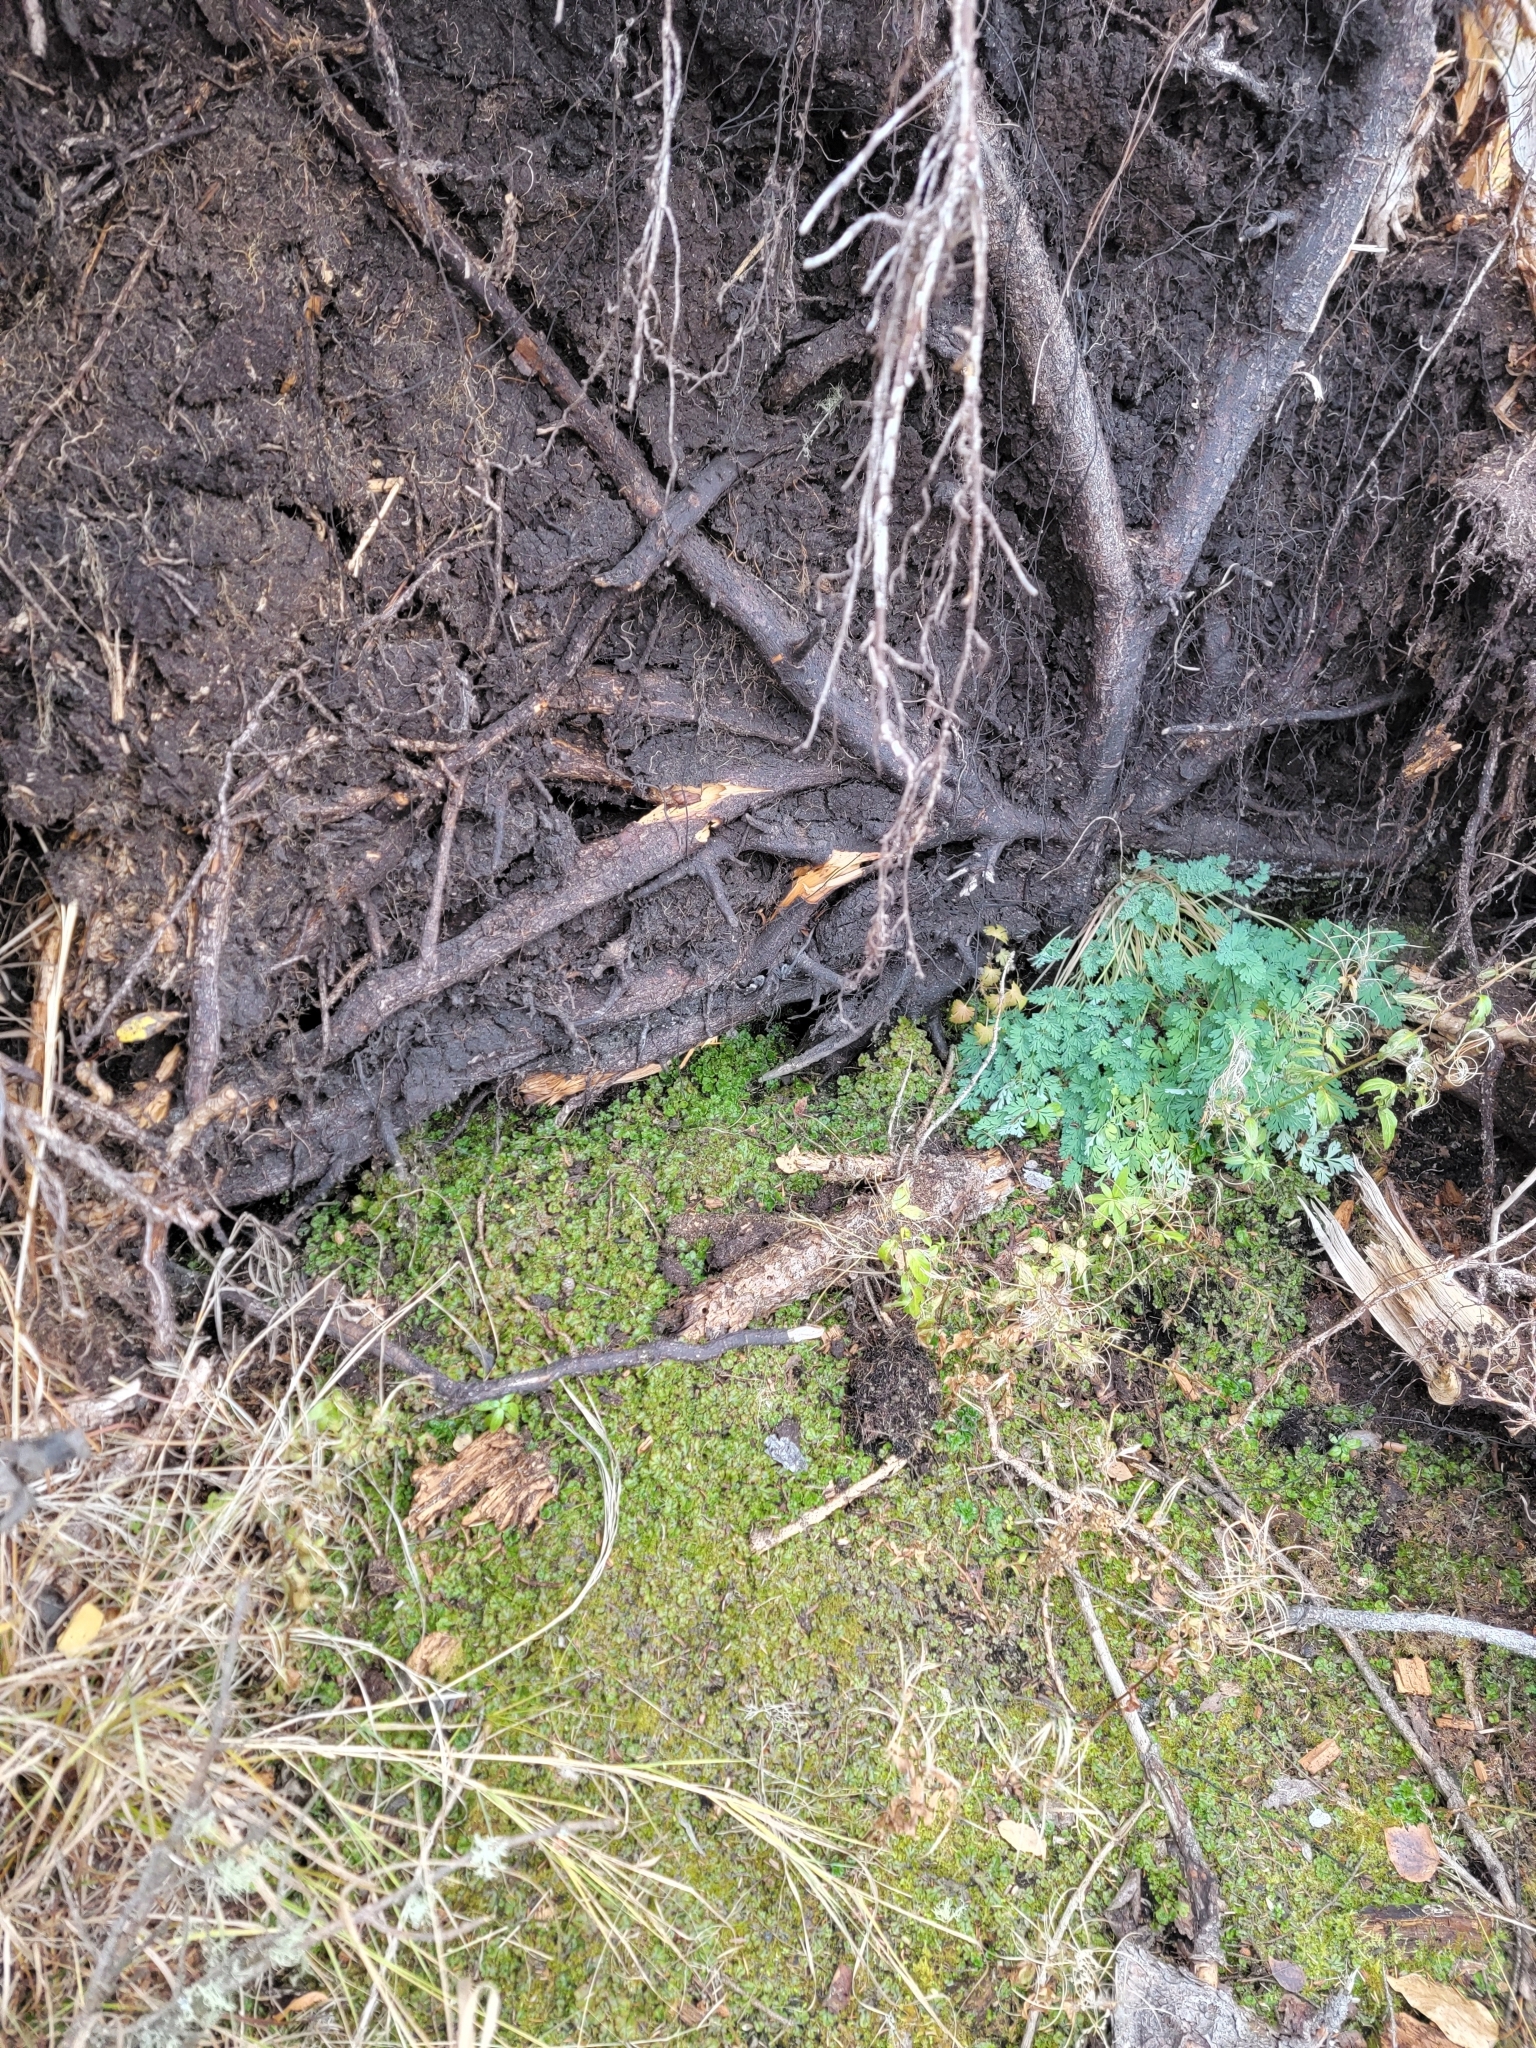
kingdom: Plantae
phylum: Marchantiophyta
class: Marchantiopsida
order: Marchantiales
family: Marchantiaceae
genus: Marchantia
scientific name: Marchantia polymorpha
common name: Common liverwort
